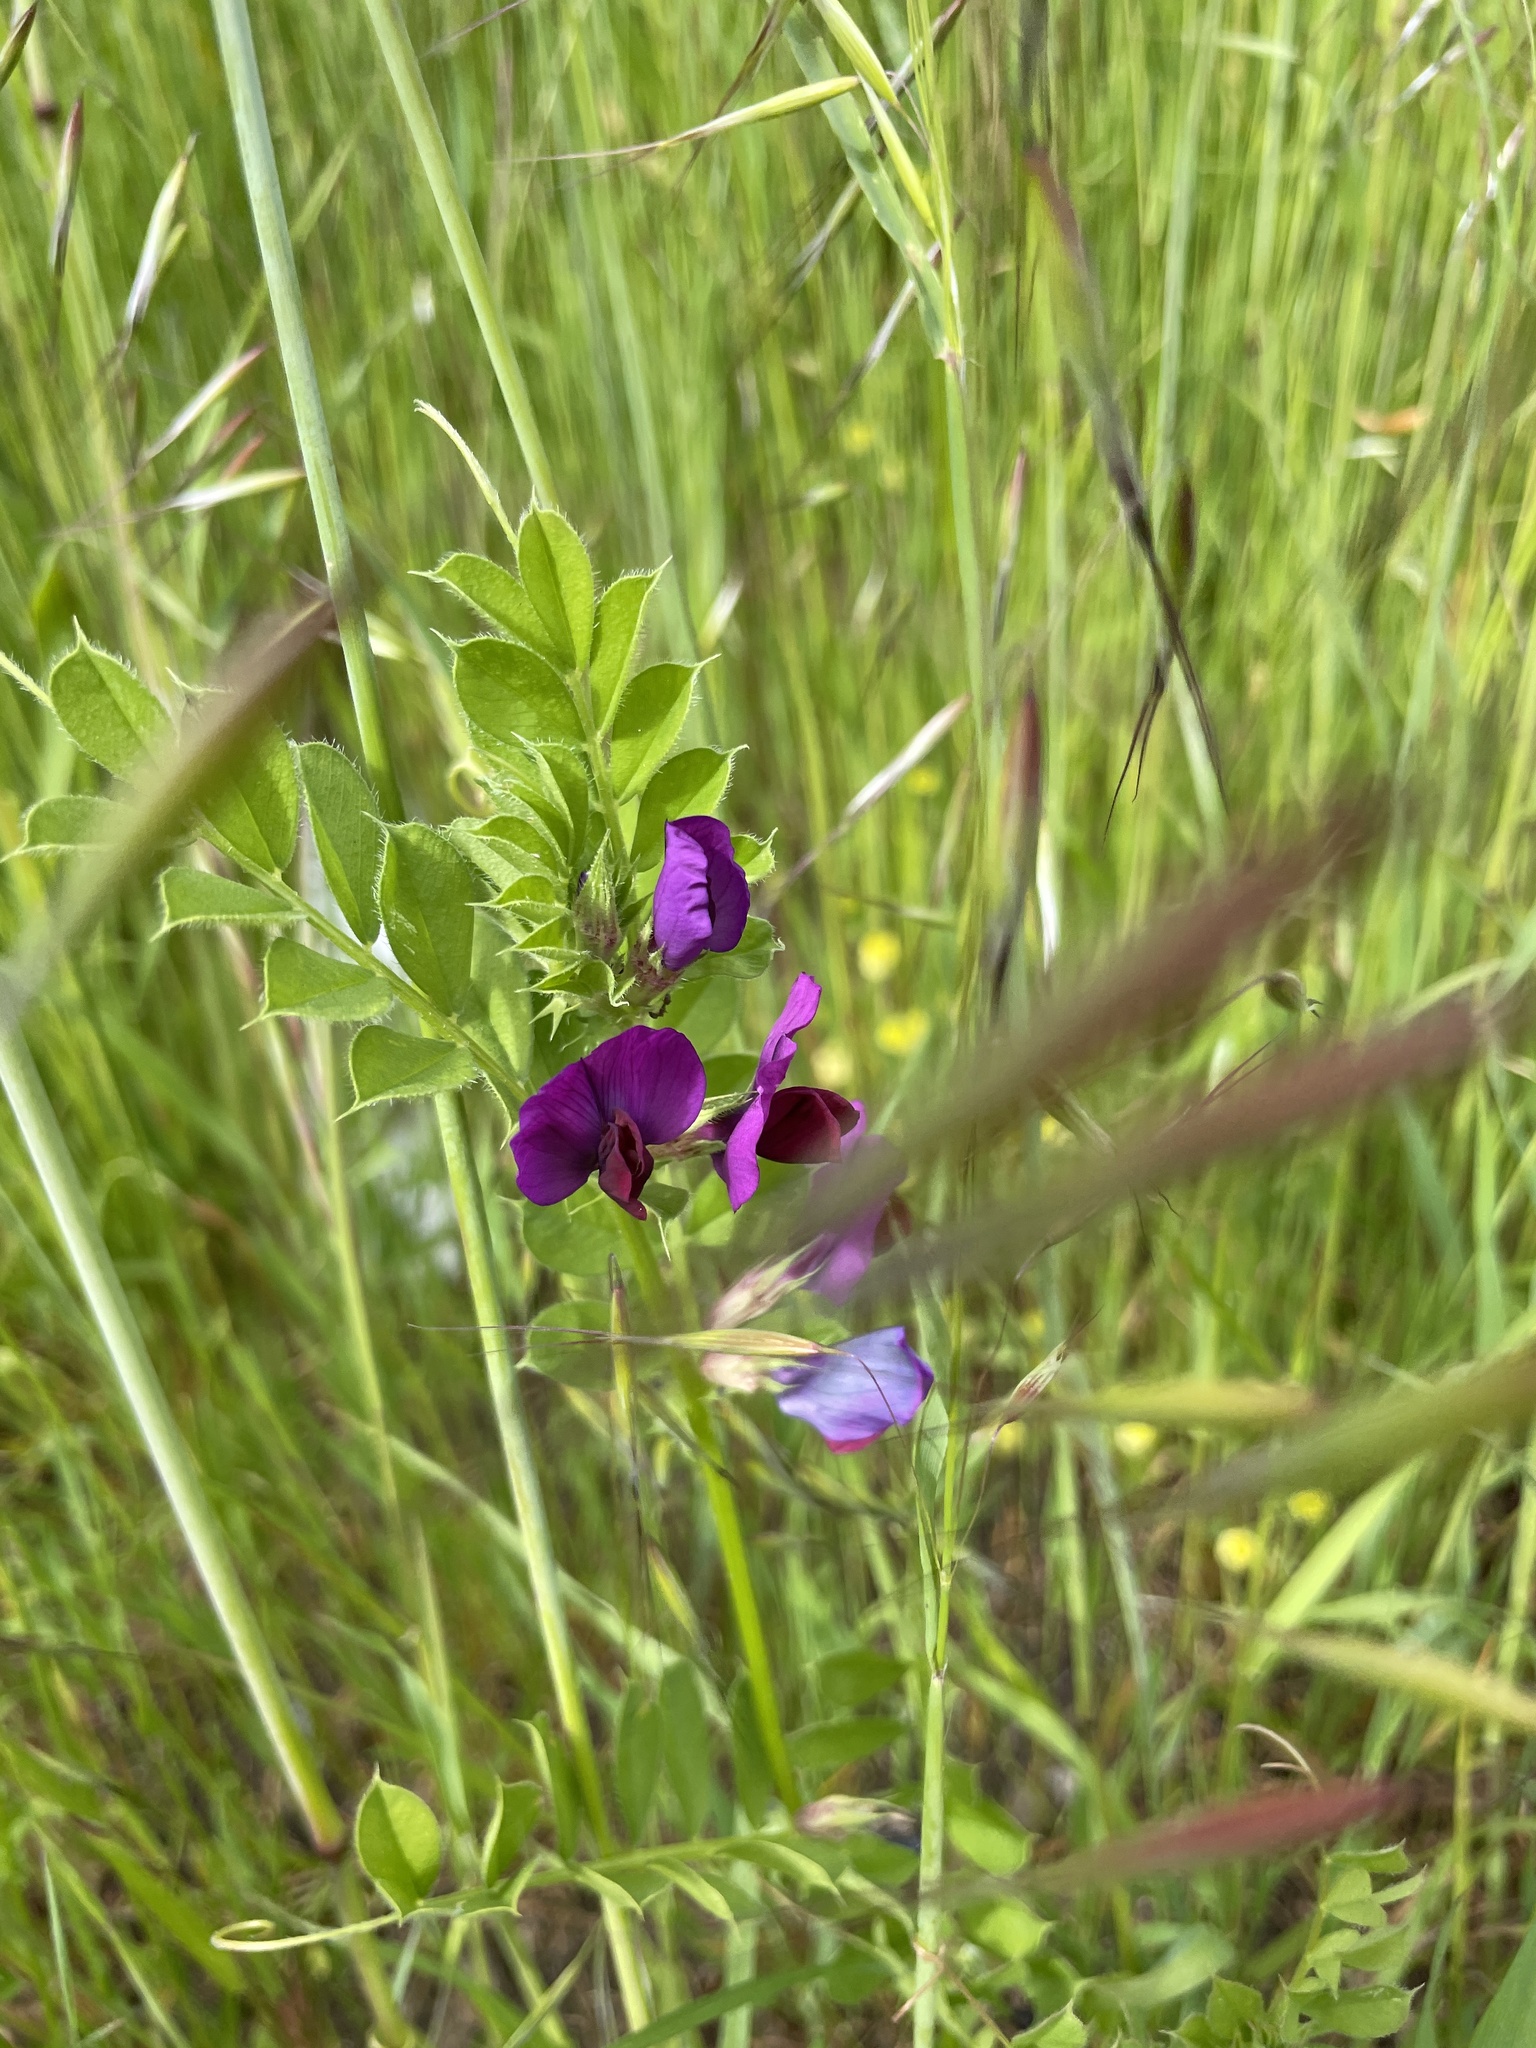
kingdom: Plantae
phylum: Tracheophyta
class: Magnoliopsida
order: Fabales
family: Fabaceae
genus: Vicia
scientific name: Vicia sativa
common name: Garden vetch
